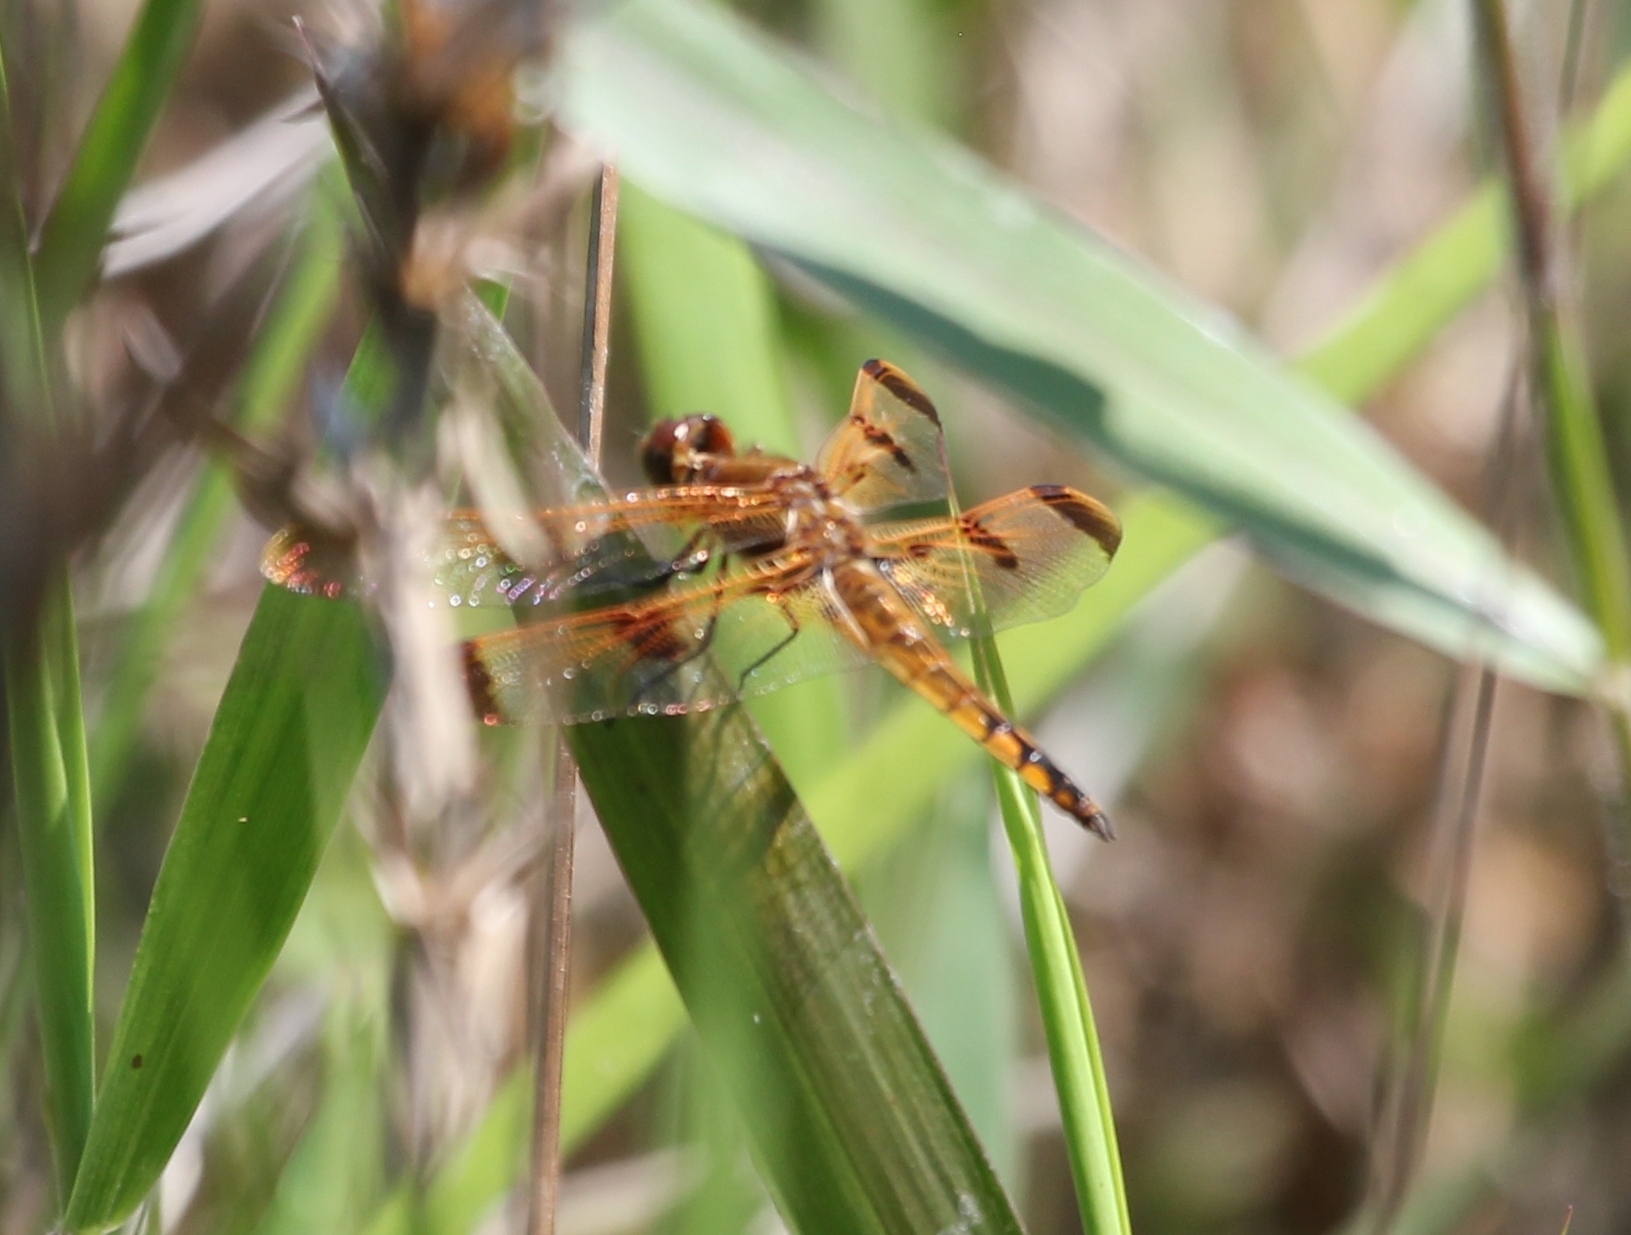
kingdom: Animalia
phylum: Arthropoda
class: Insecta
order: Odonata
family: Libellulidae
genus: Libellula
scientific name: Libellula semifasciata
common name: Painted skimmer
